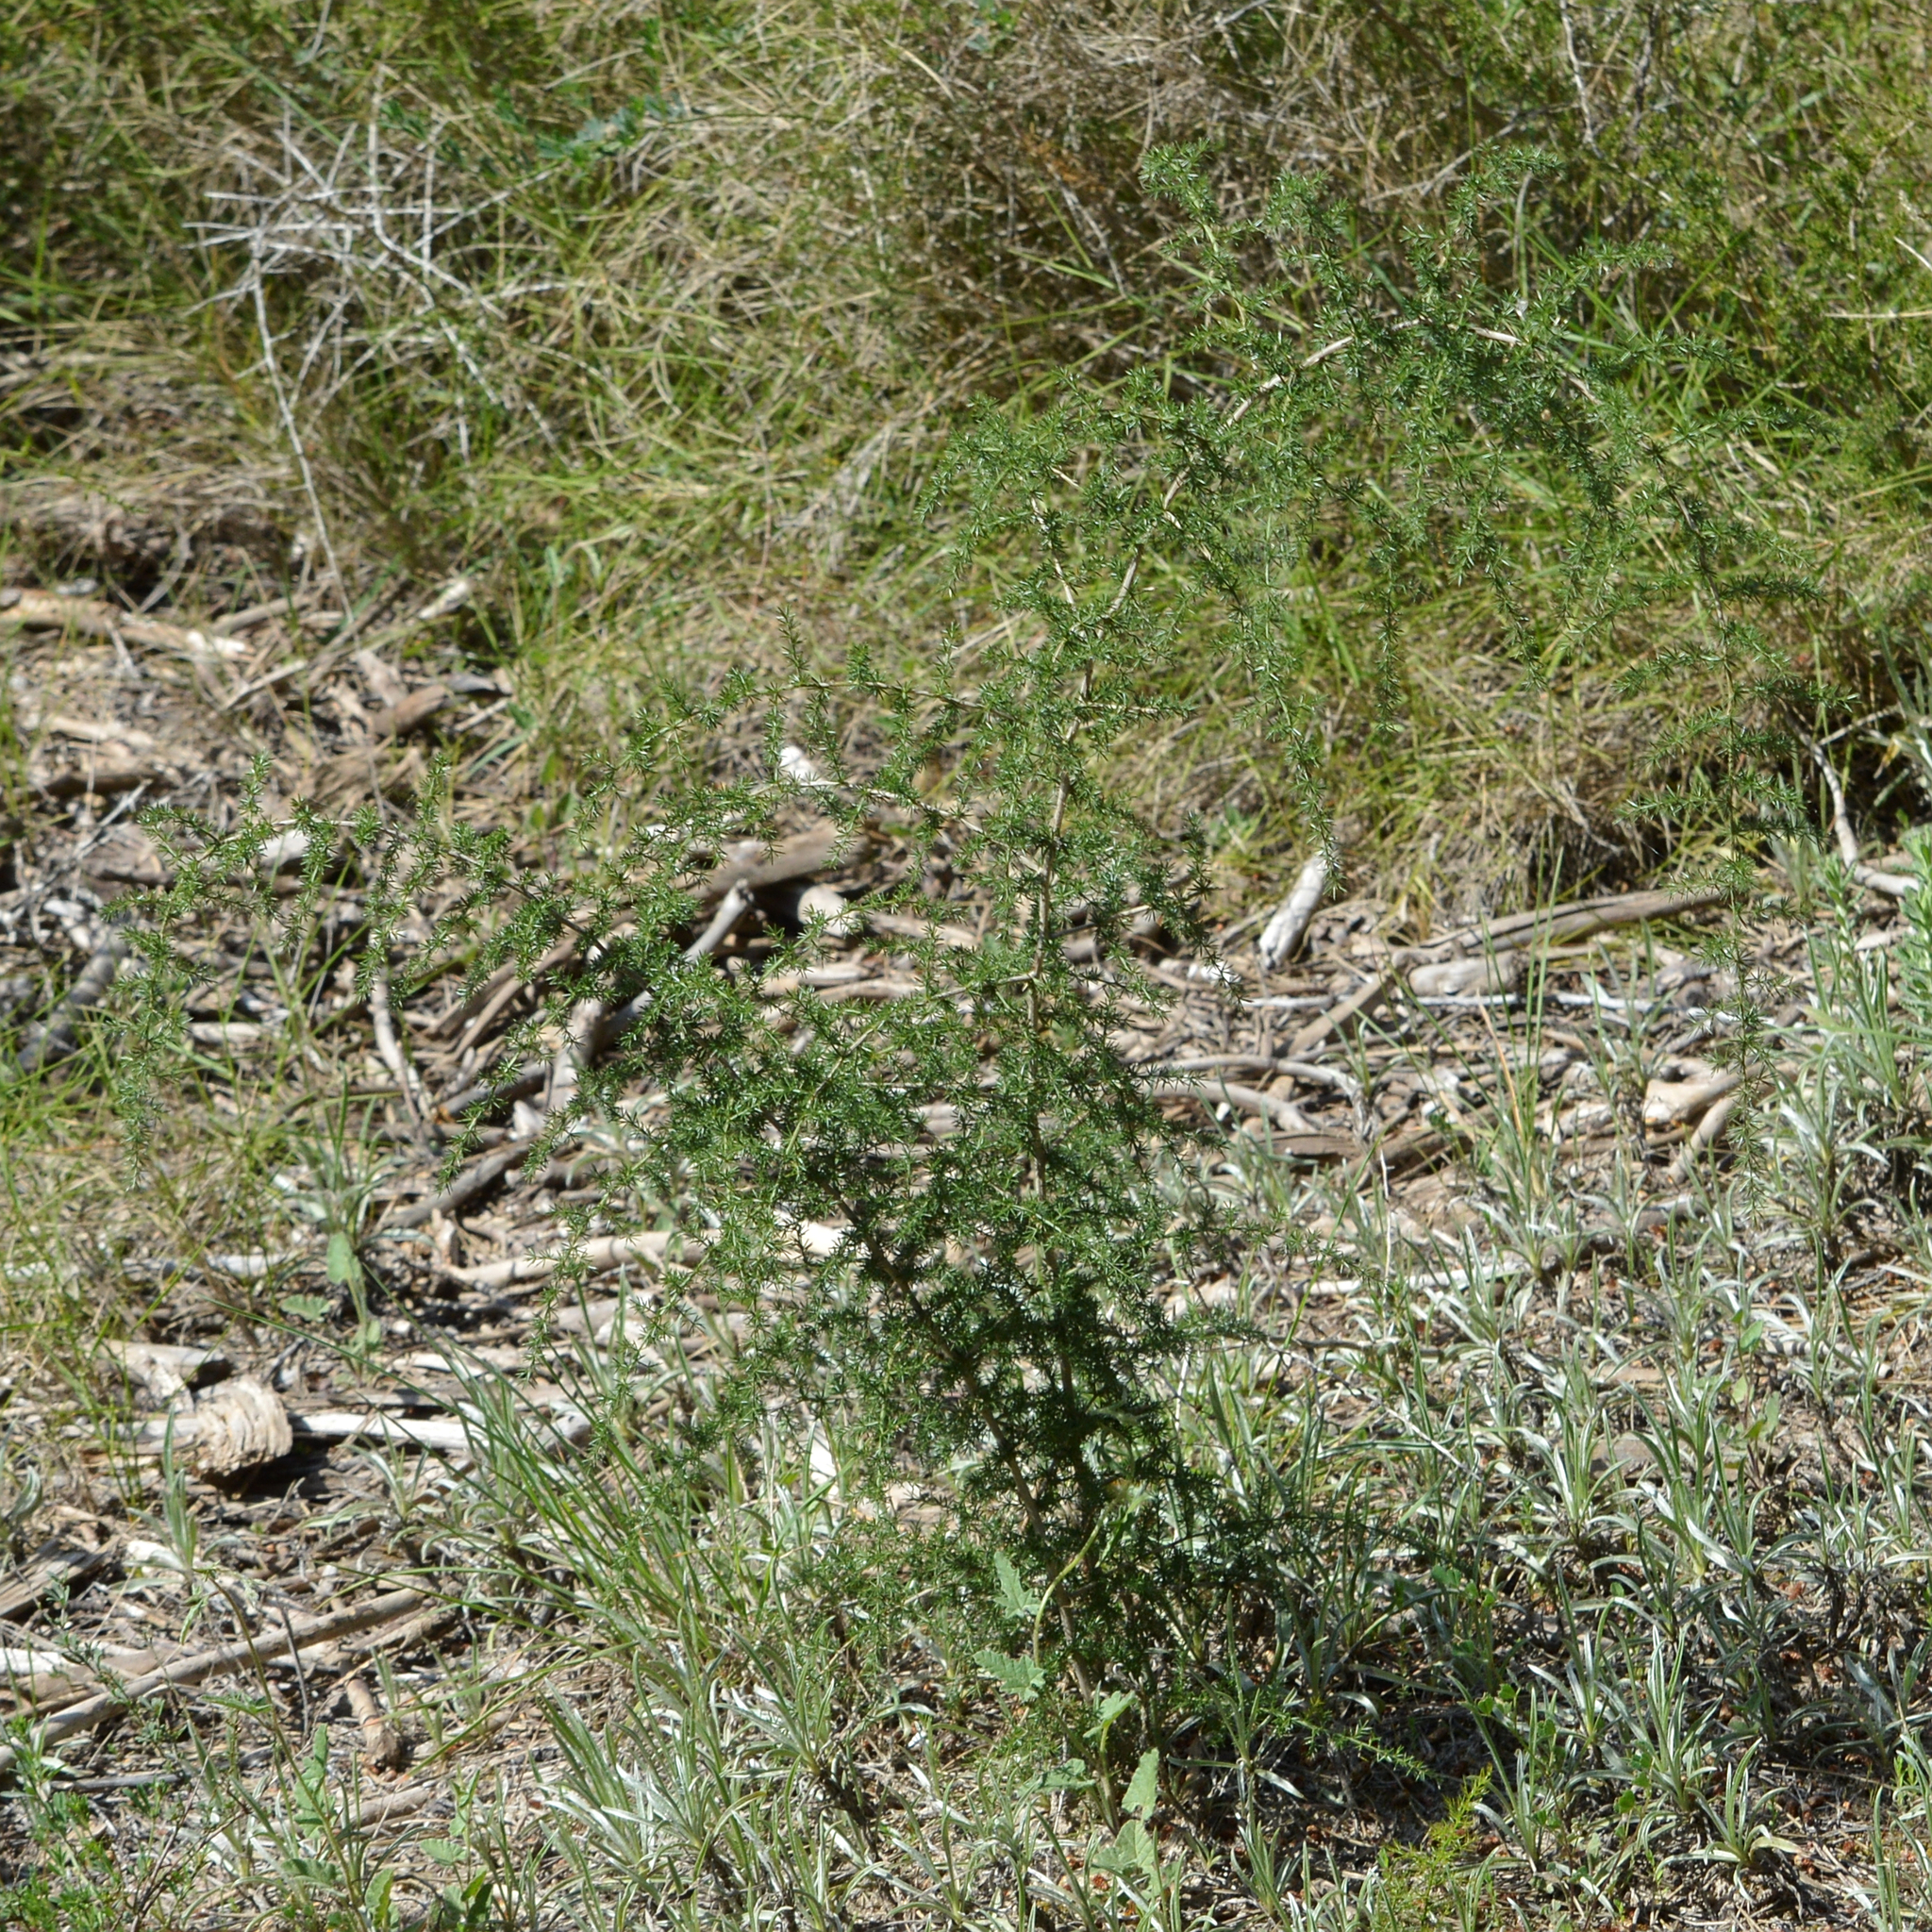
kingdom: Plantae
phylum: Tracheophyta
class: Liliopsida
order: Asparagales
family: Asparagaceae
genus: Asparagus
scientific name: Asparagus acutifolius
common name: Wild asparagus
